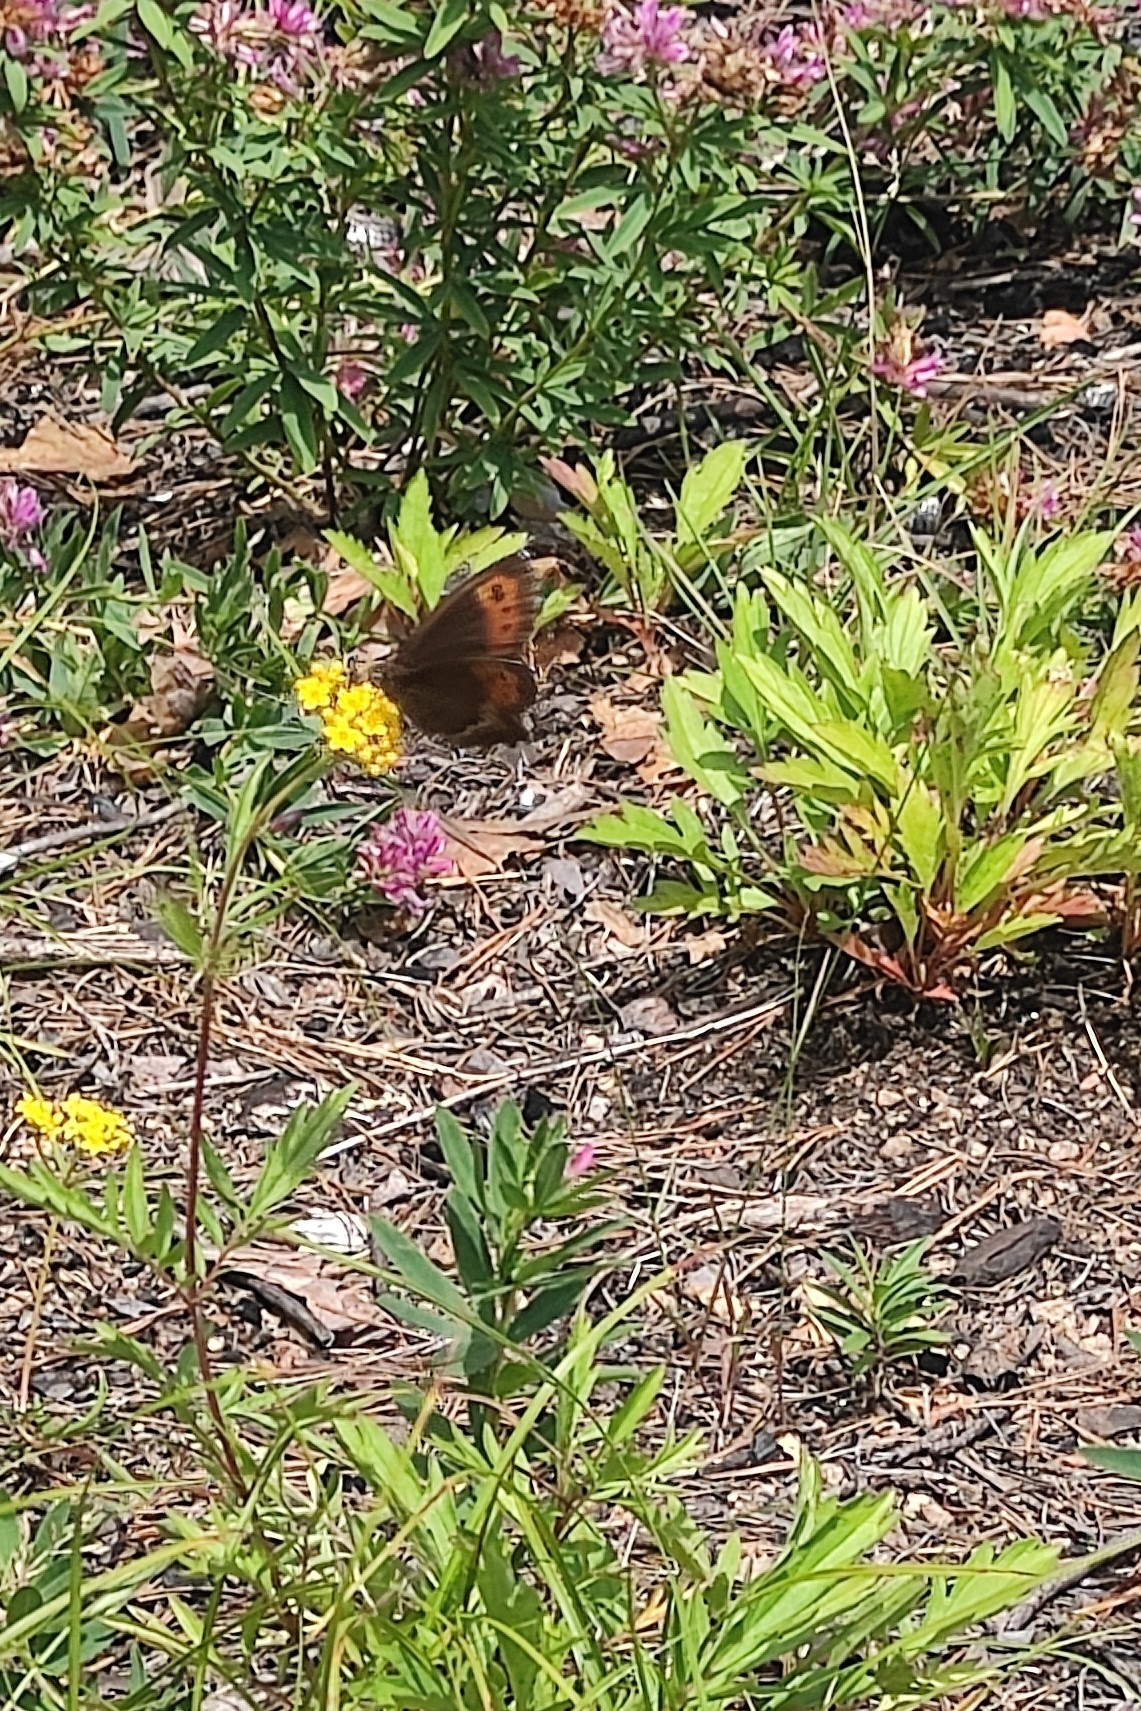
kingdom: Animalia
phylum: Arthropoda
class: Insecta
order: Lepidoptera
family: Nymphalidae
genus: Erebia
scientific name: Erebia ligea
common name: Arran brown
